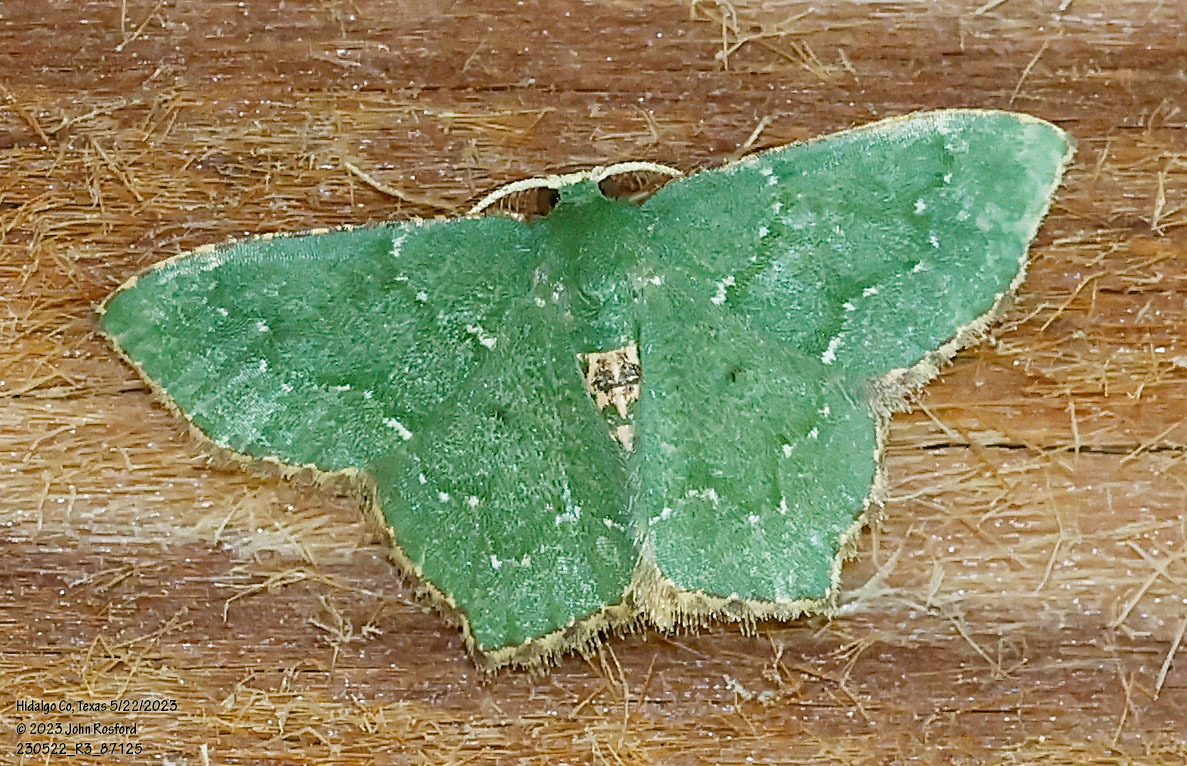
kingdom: Animalia
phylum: Arthropoda
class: Insecta
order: Lepidoptera
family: Geometridae
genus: Chloropteryx
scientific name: Chloropteryx nordicaria
